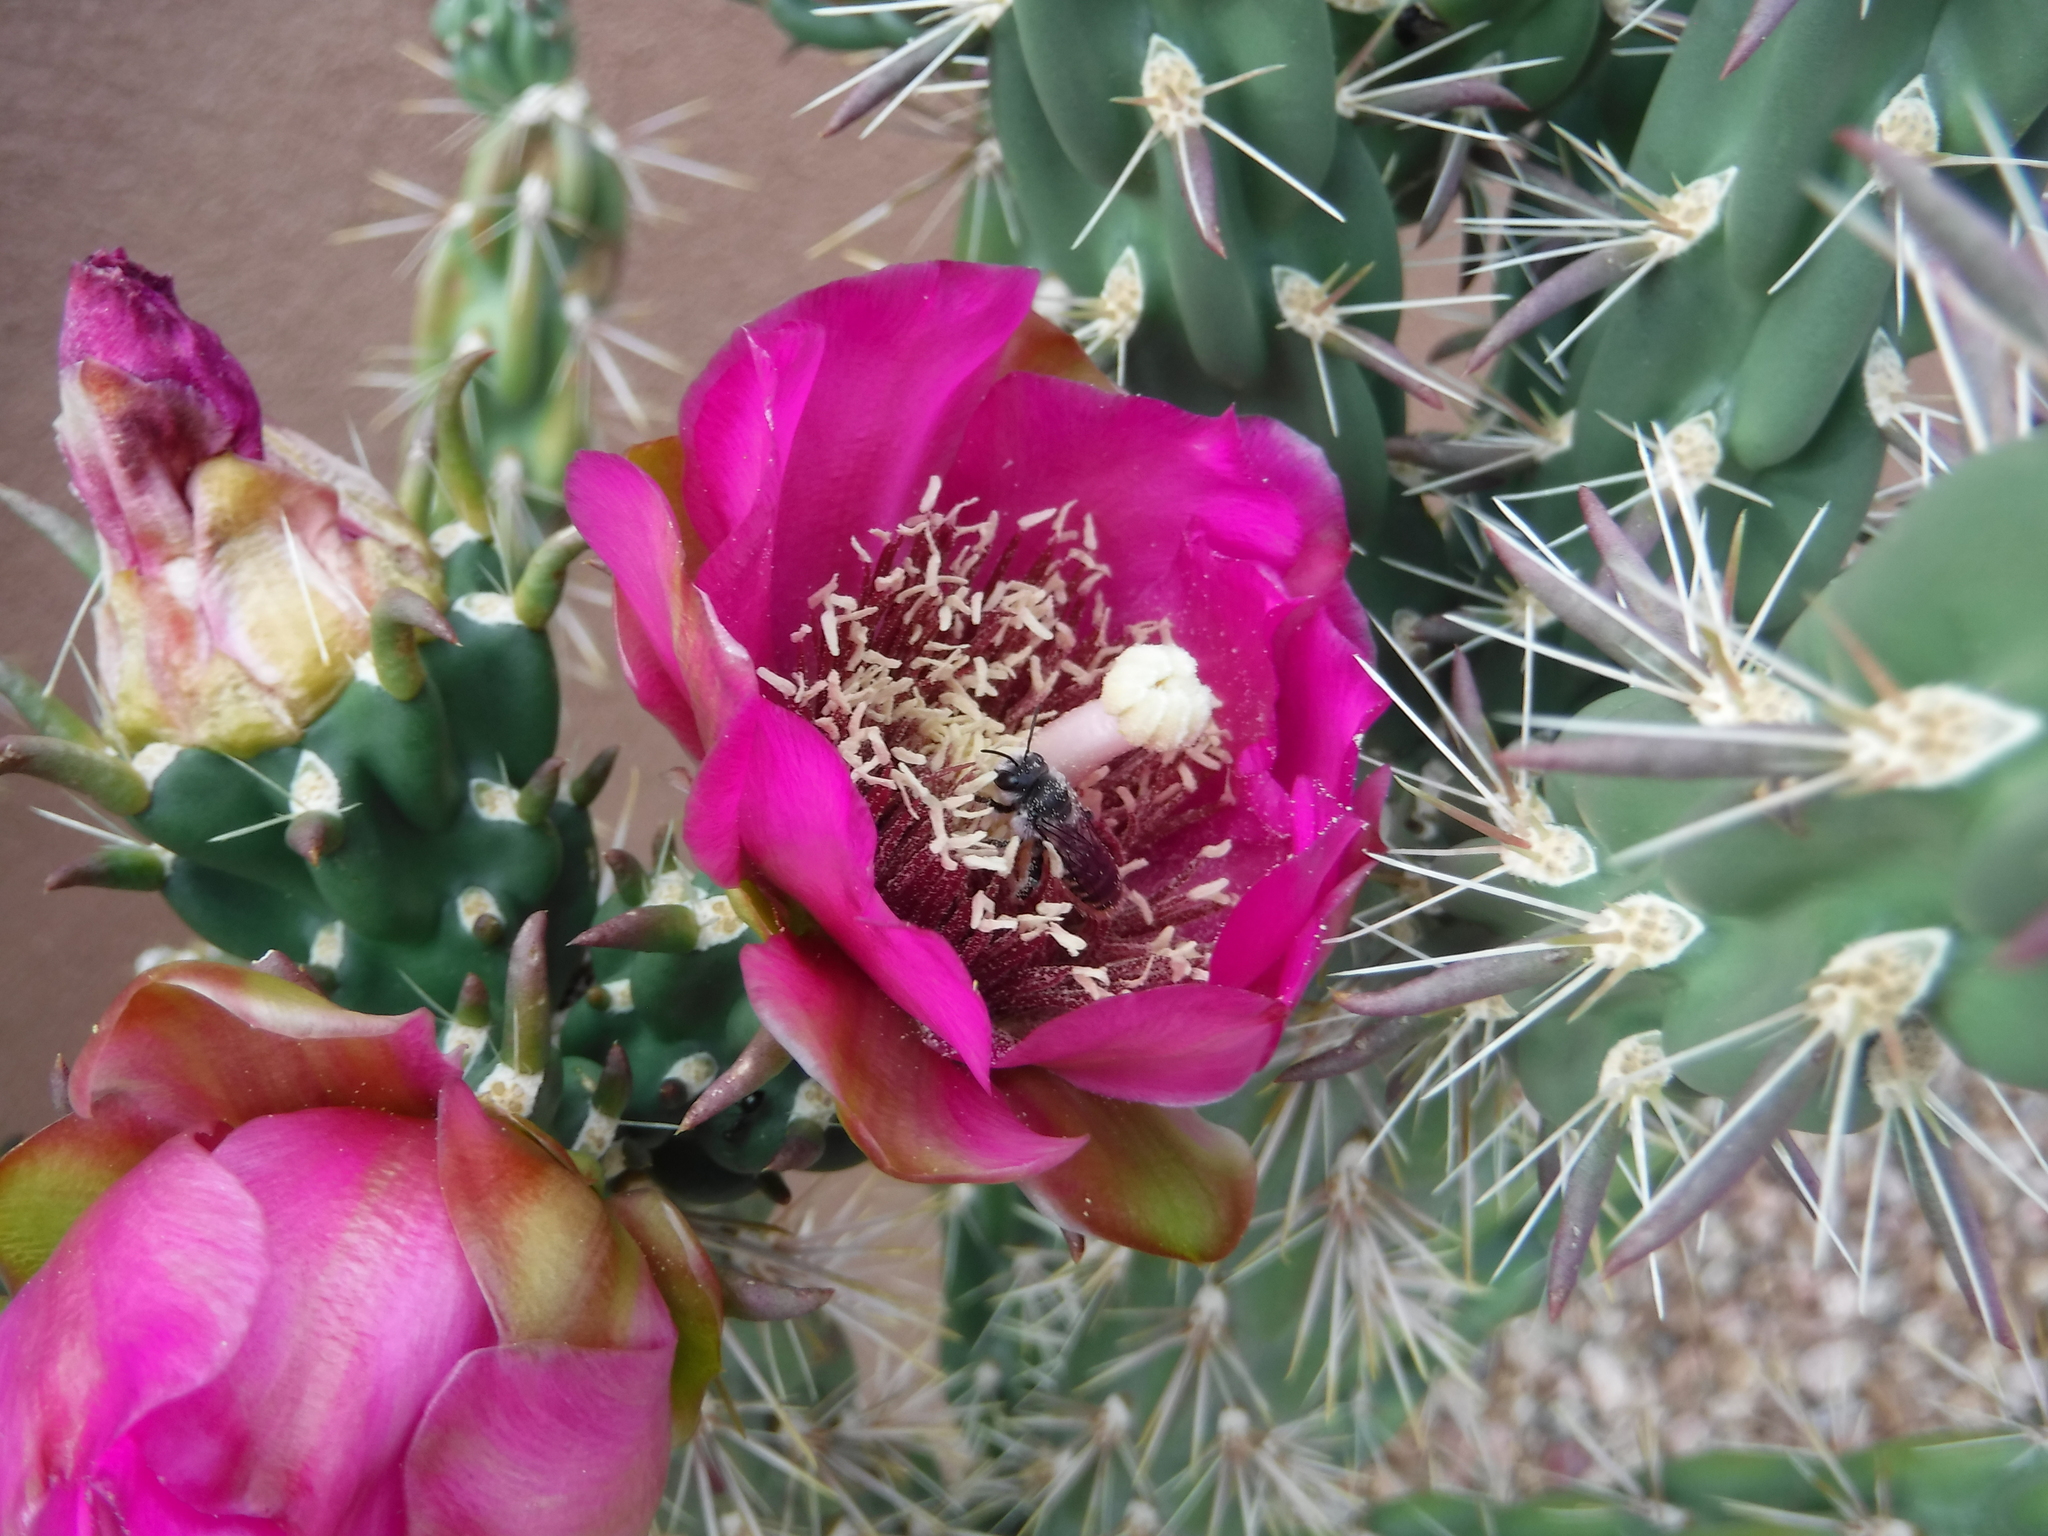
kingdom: Animalia
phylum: Arthropoda
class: Insecta
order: Hymenoptera
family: Megachilidae
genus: Lithurgopsis
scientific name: Lithurgopsis apicalis
